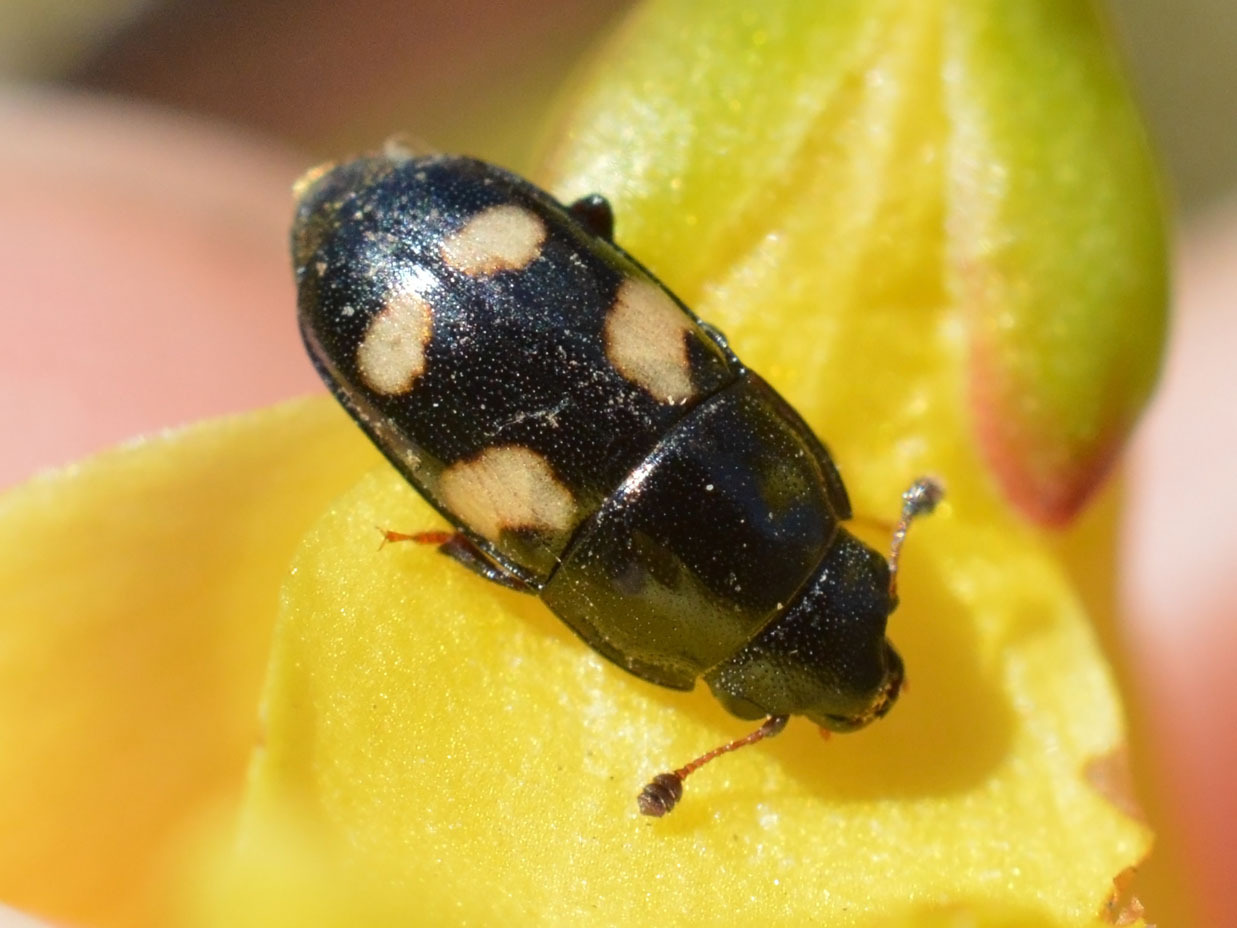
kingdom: Animalia
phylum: Arthropoda
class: Insecta
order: Coleoptera
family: Nitidulidae
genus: Glischrochilus
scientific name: Glischrochilus quadrisignatus
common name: Picnic beetle
